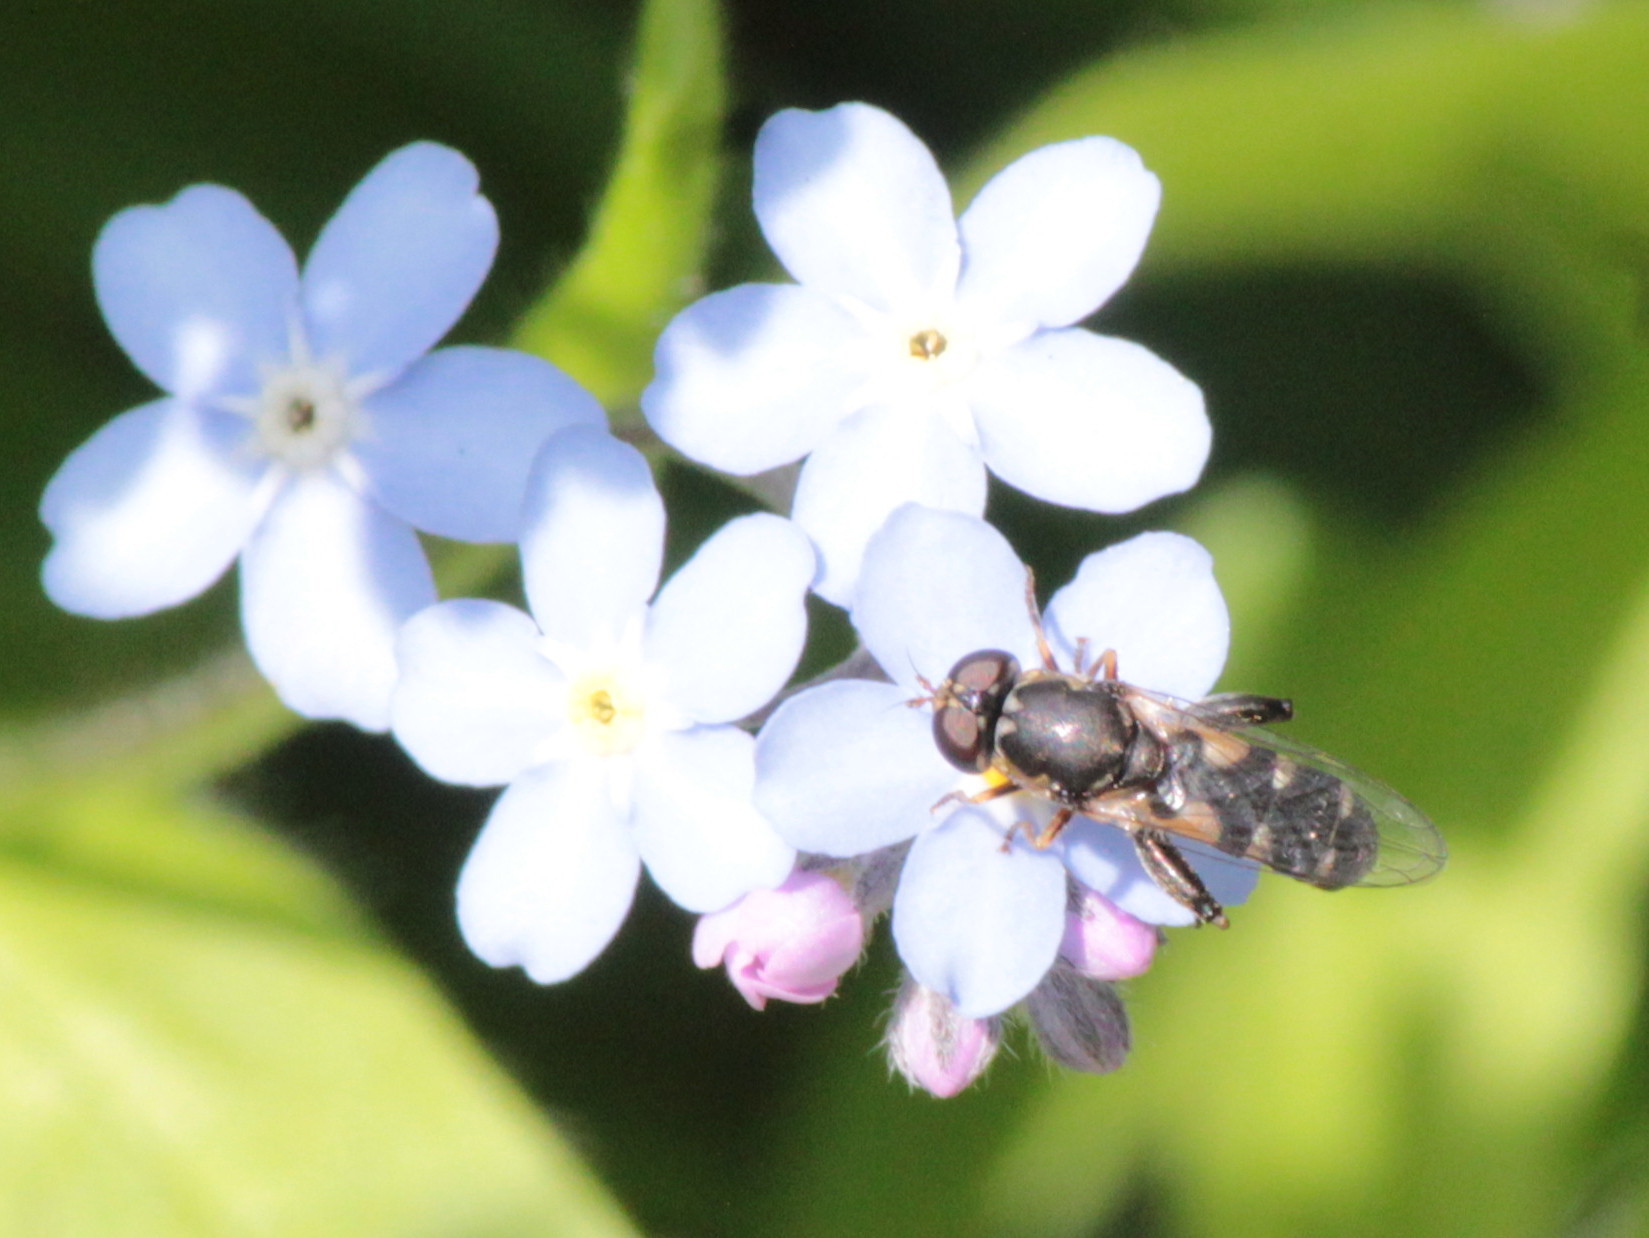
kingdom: Animalia
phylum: Arthropoda
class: Insecta
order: Diptera
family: Syrphidae
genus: Syritta
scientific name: Syritta pipiens
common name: Hover fly
